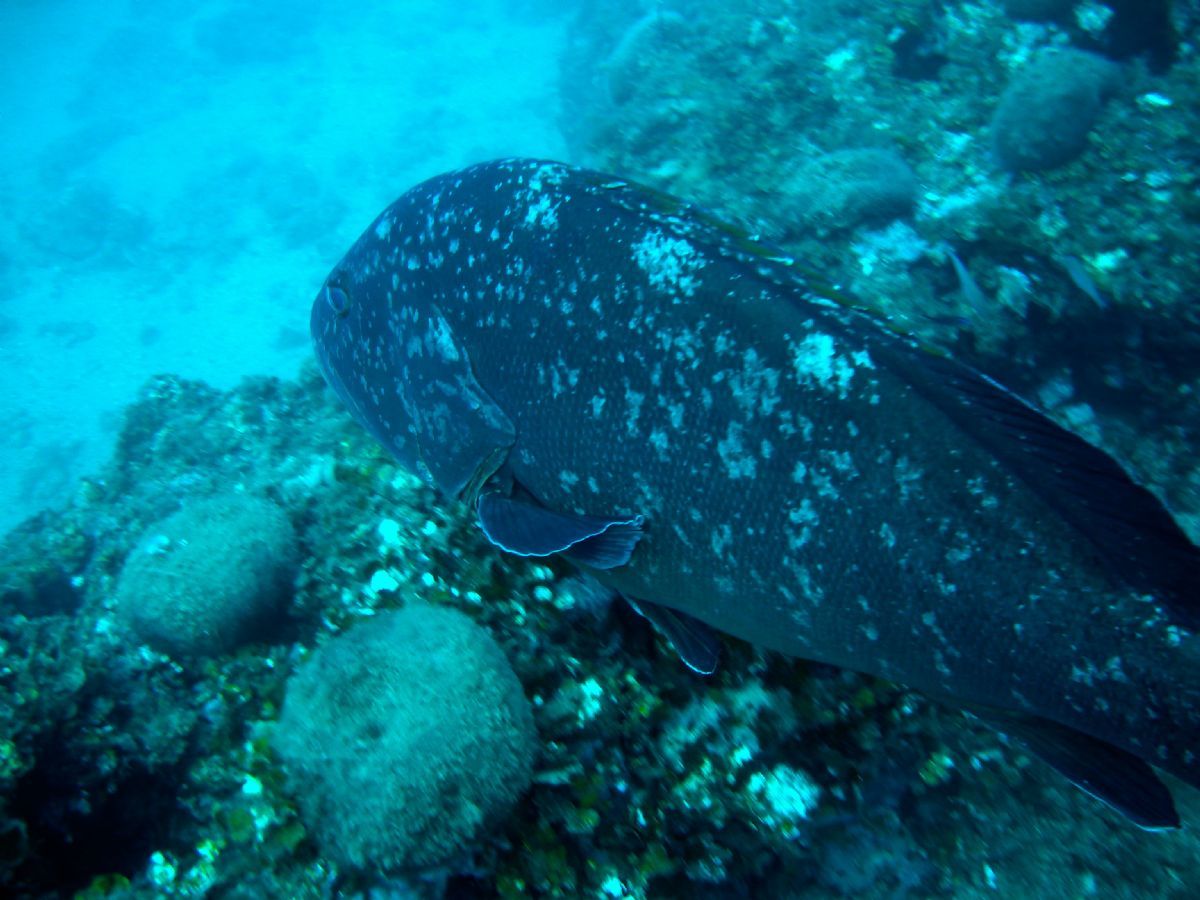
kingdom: Animalia
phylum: Chordata
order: Perciformes
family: Serranidae
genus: Epinephelus
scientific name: Epinephelus marginatus
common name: Dusky grouper
